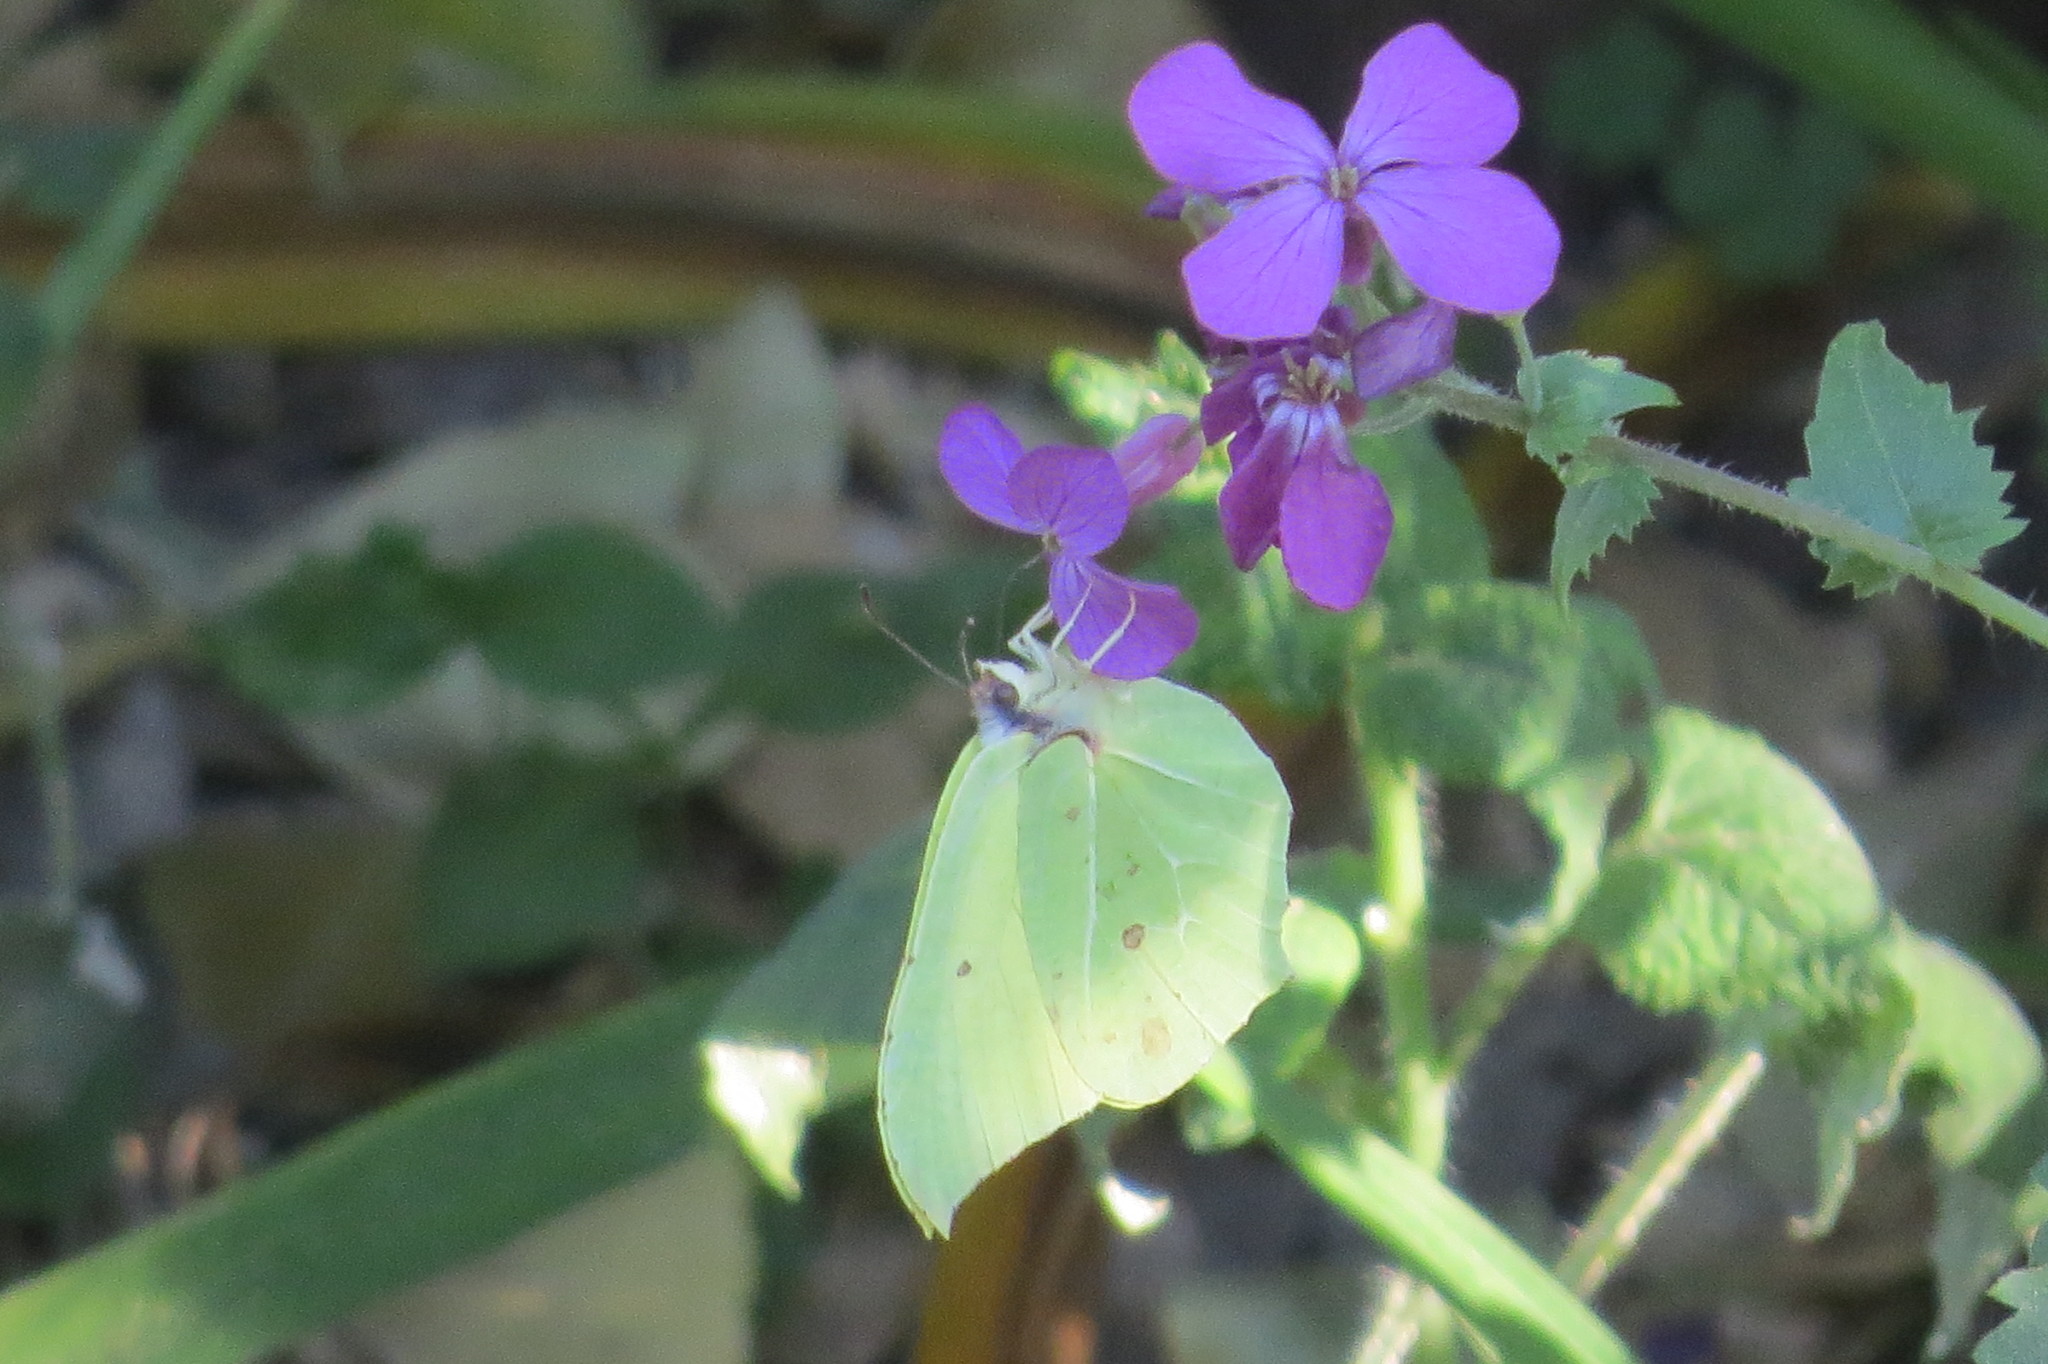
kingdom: Animalia
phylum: Arthropoda
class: Insecta
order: Lepidoptera
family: Pieridae
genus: Gonepteryx
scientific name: Gonepteryx rhamni
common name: Brimstone
